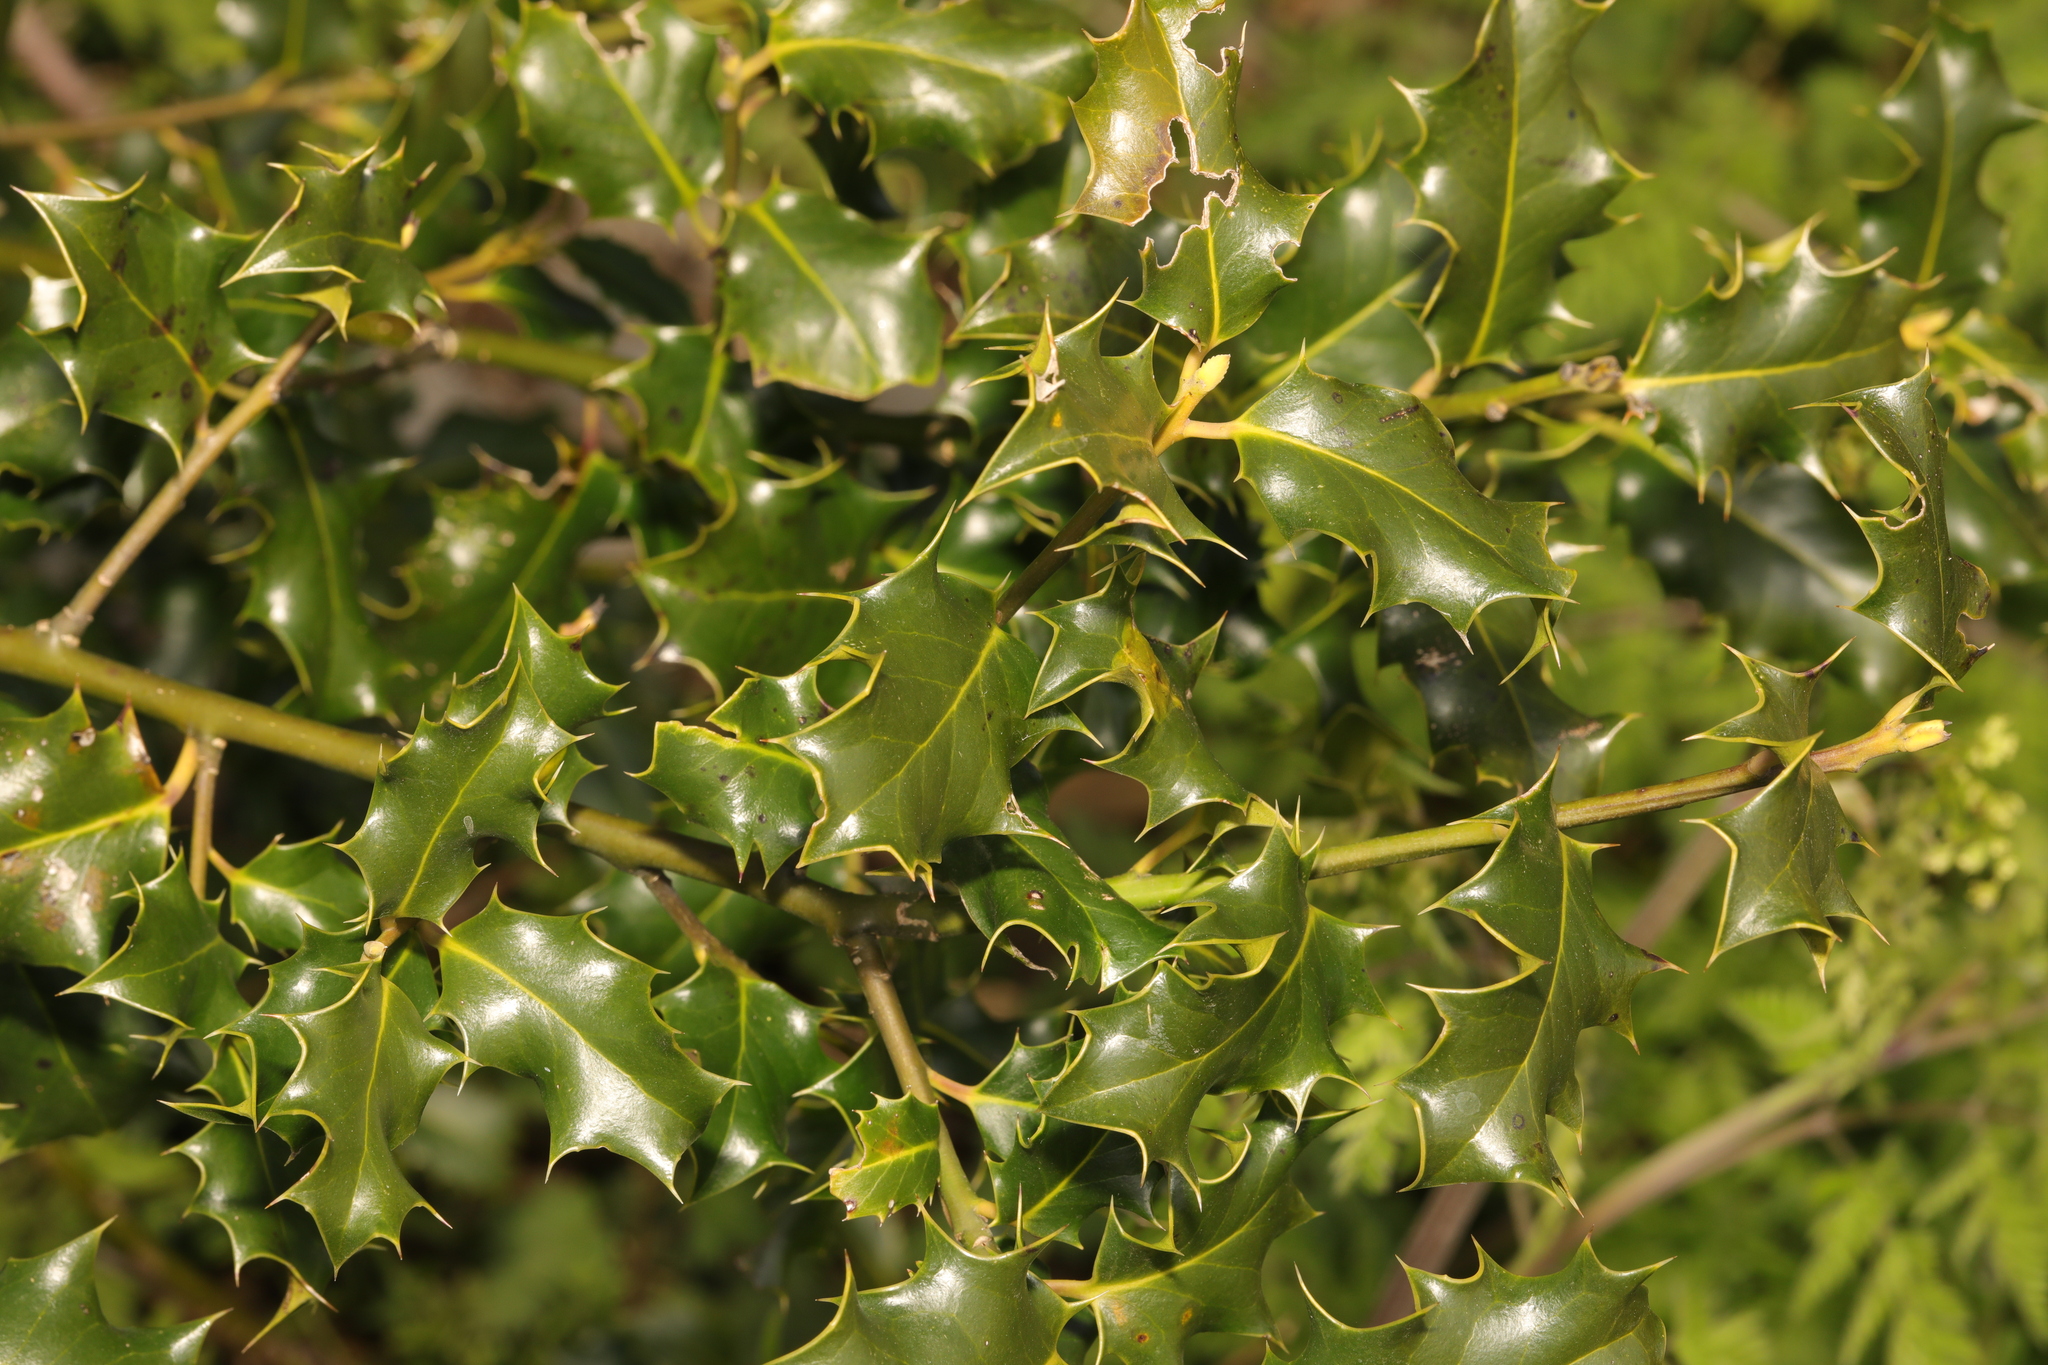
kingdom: Plantae
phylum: Tracheophyta
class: Magnoliopsida
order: Aquifoliales
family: Aquifoliaceae
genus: Ilex
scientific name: Ilex aquifolium
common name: English holly
